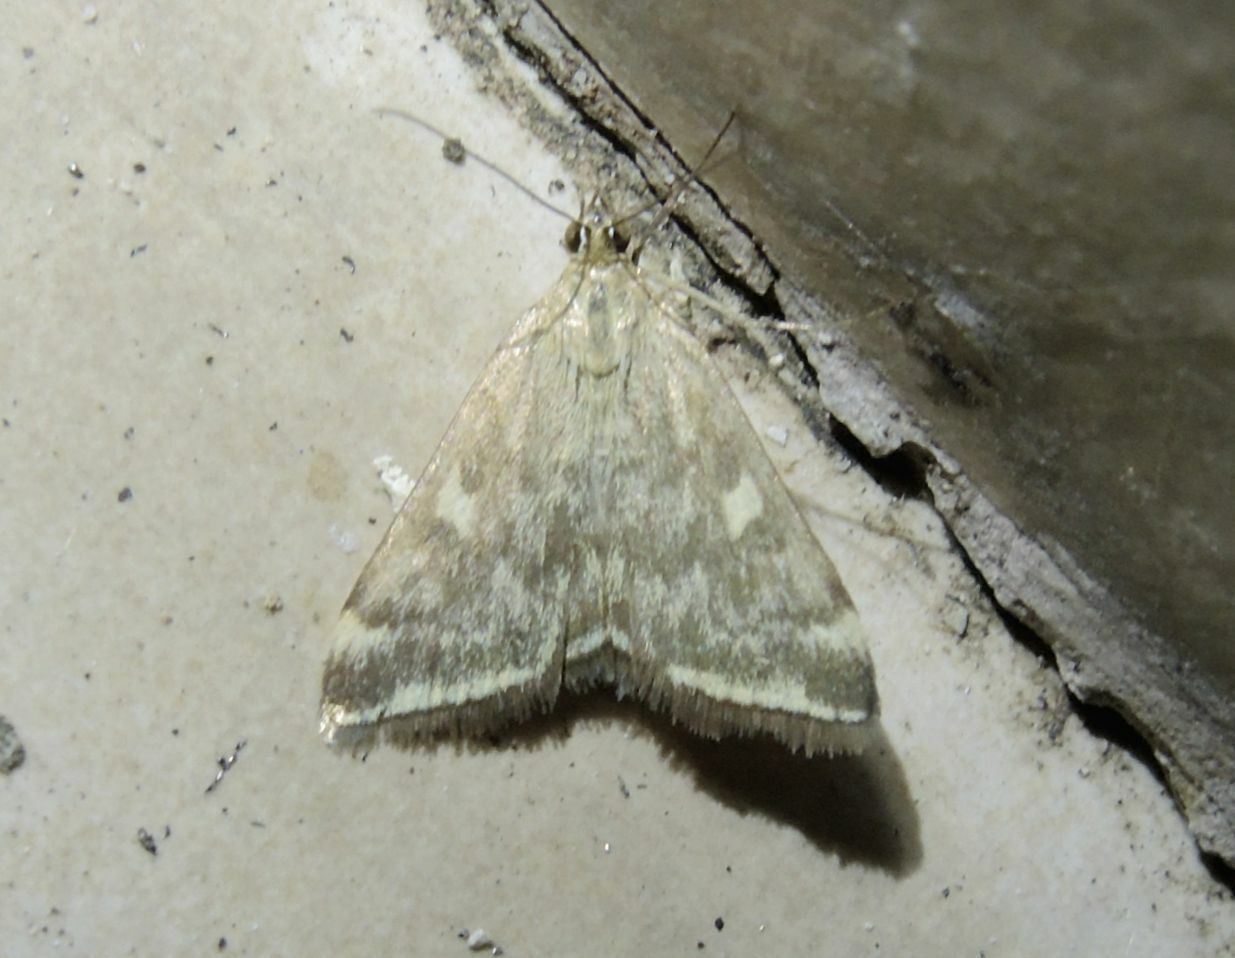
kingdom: Animalia
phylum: Arthropoda
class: Insecta
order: Lepidoptera
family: Crambidae
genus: Loxostege
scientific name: Loxostege sticticalis
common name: Crambid moth
